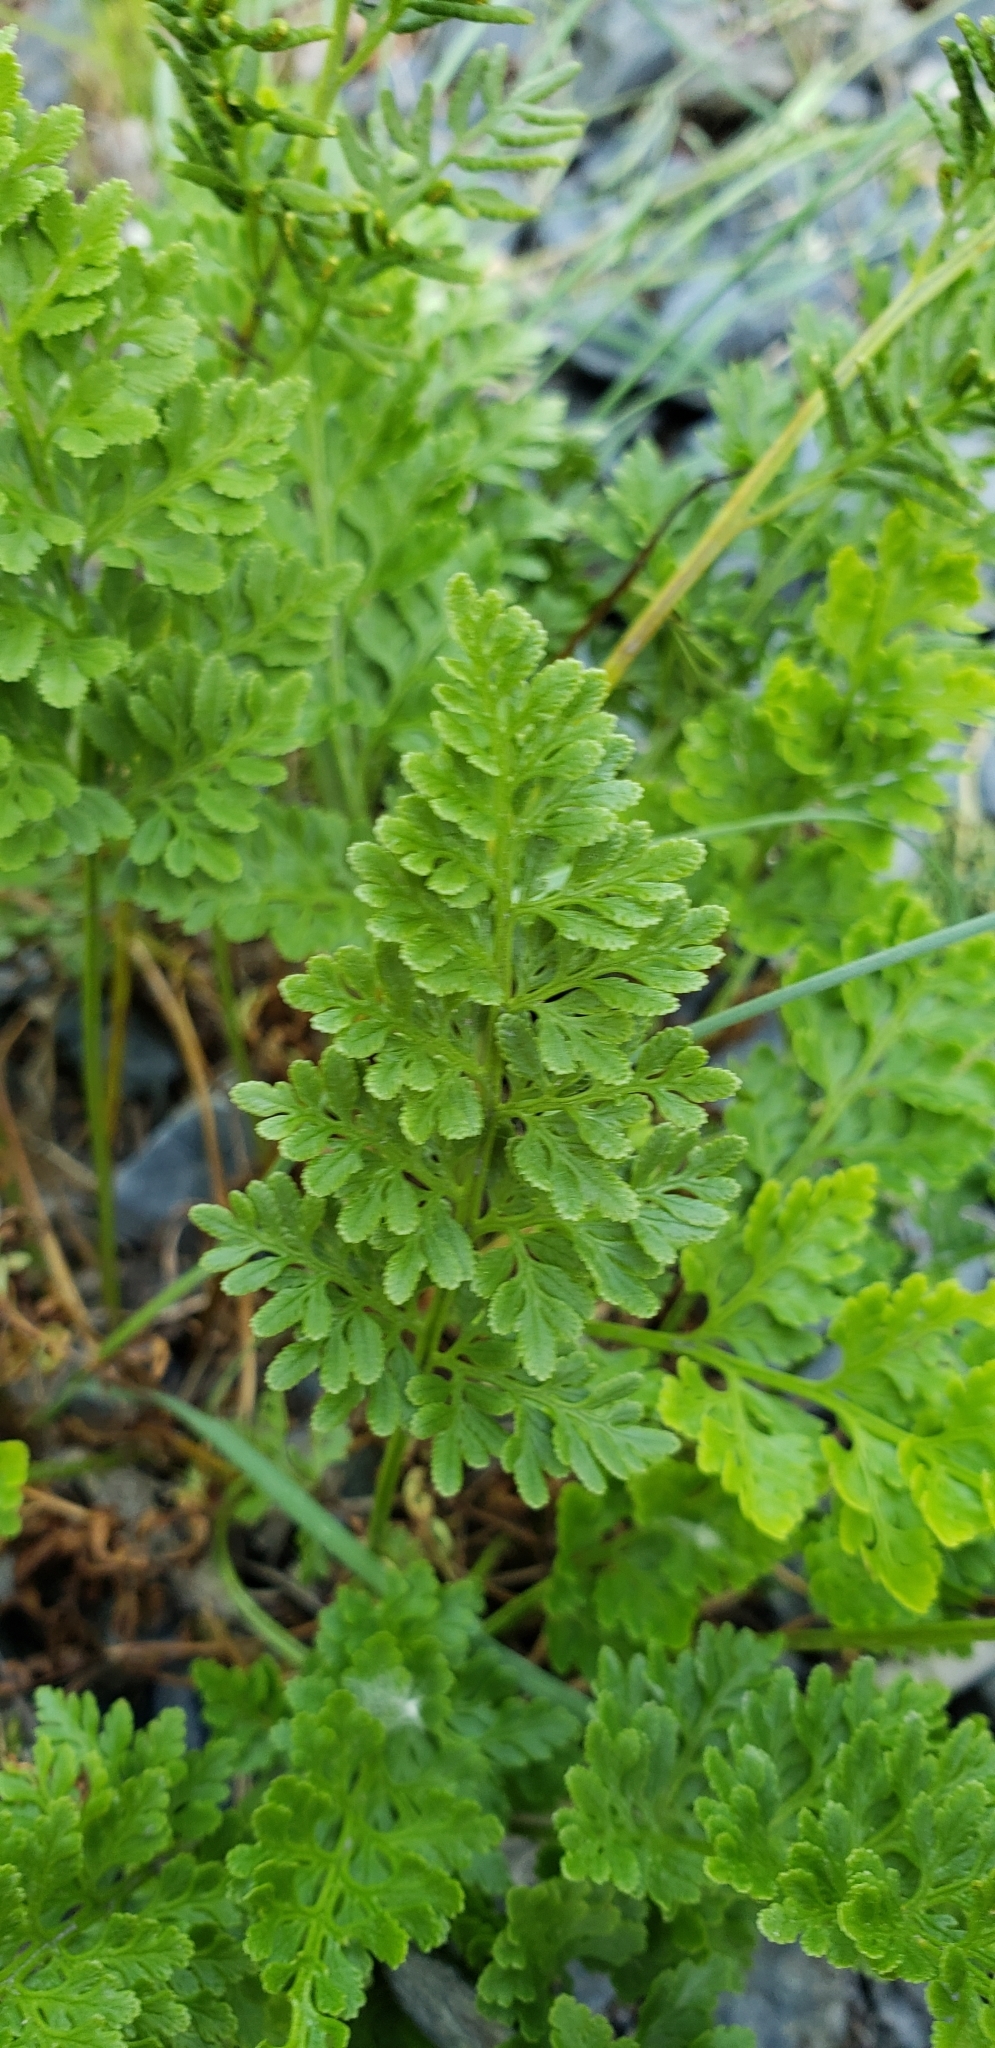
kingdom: Plantae
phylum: Tracheophyta
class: Polypodiopsida
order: Polypodiales
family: Pteridaceae
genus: Cryptogramma
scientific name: Cryptogramma acrostichoides
